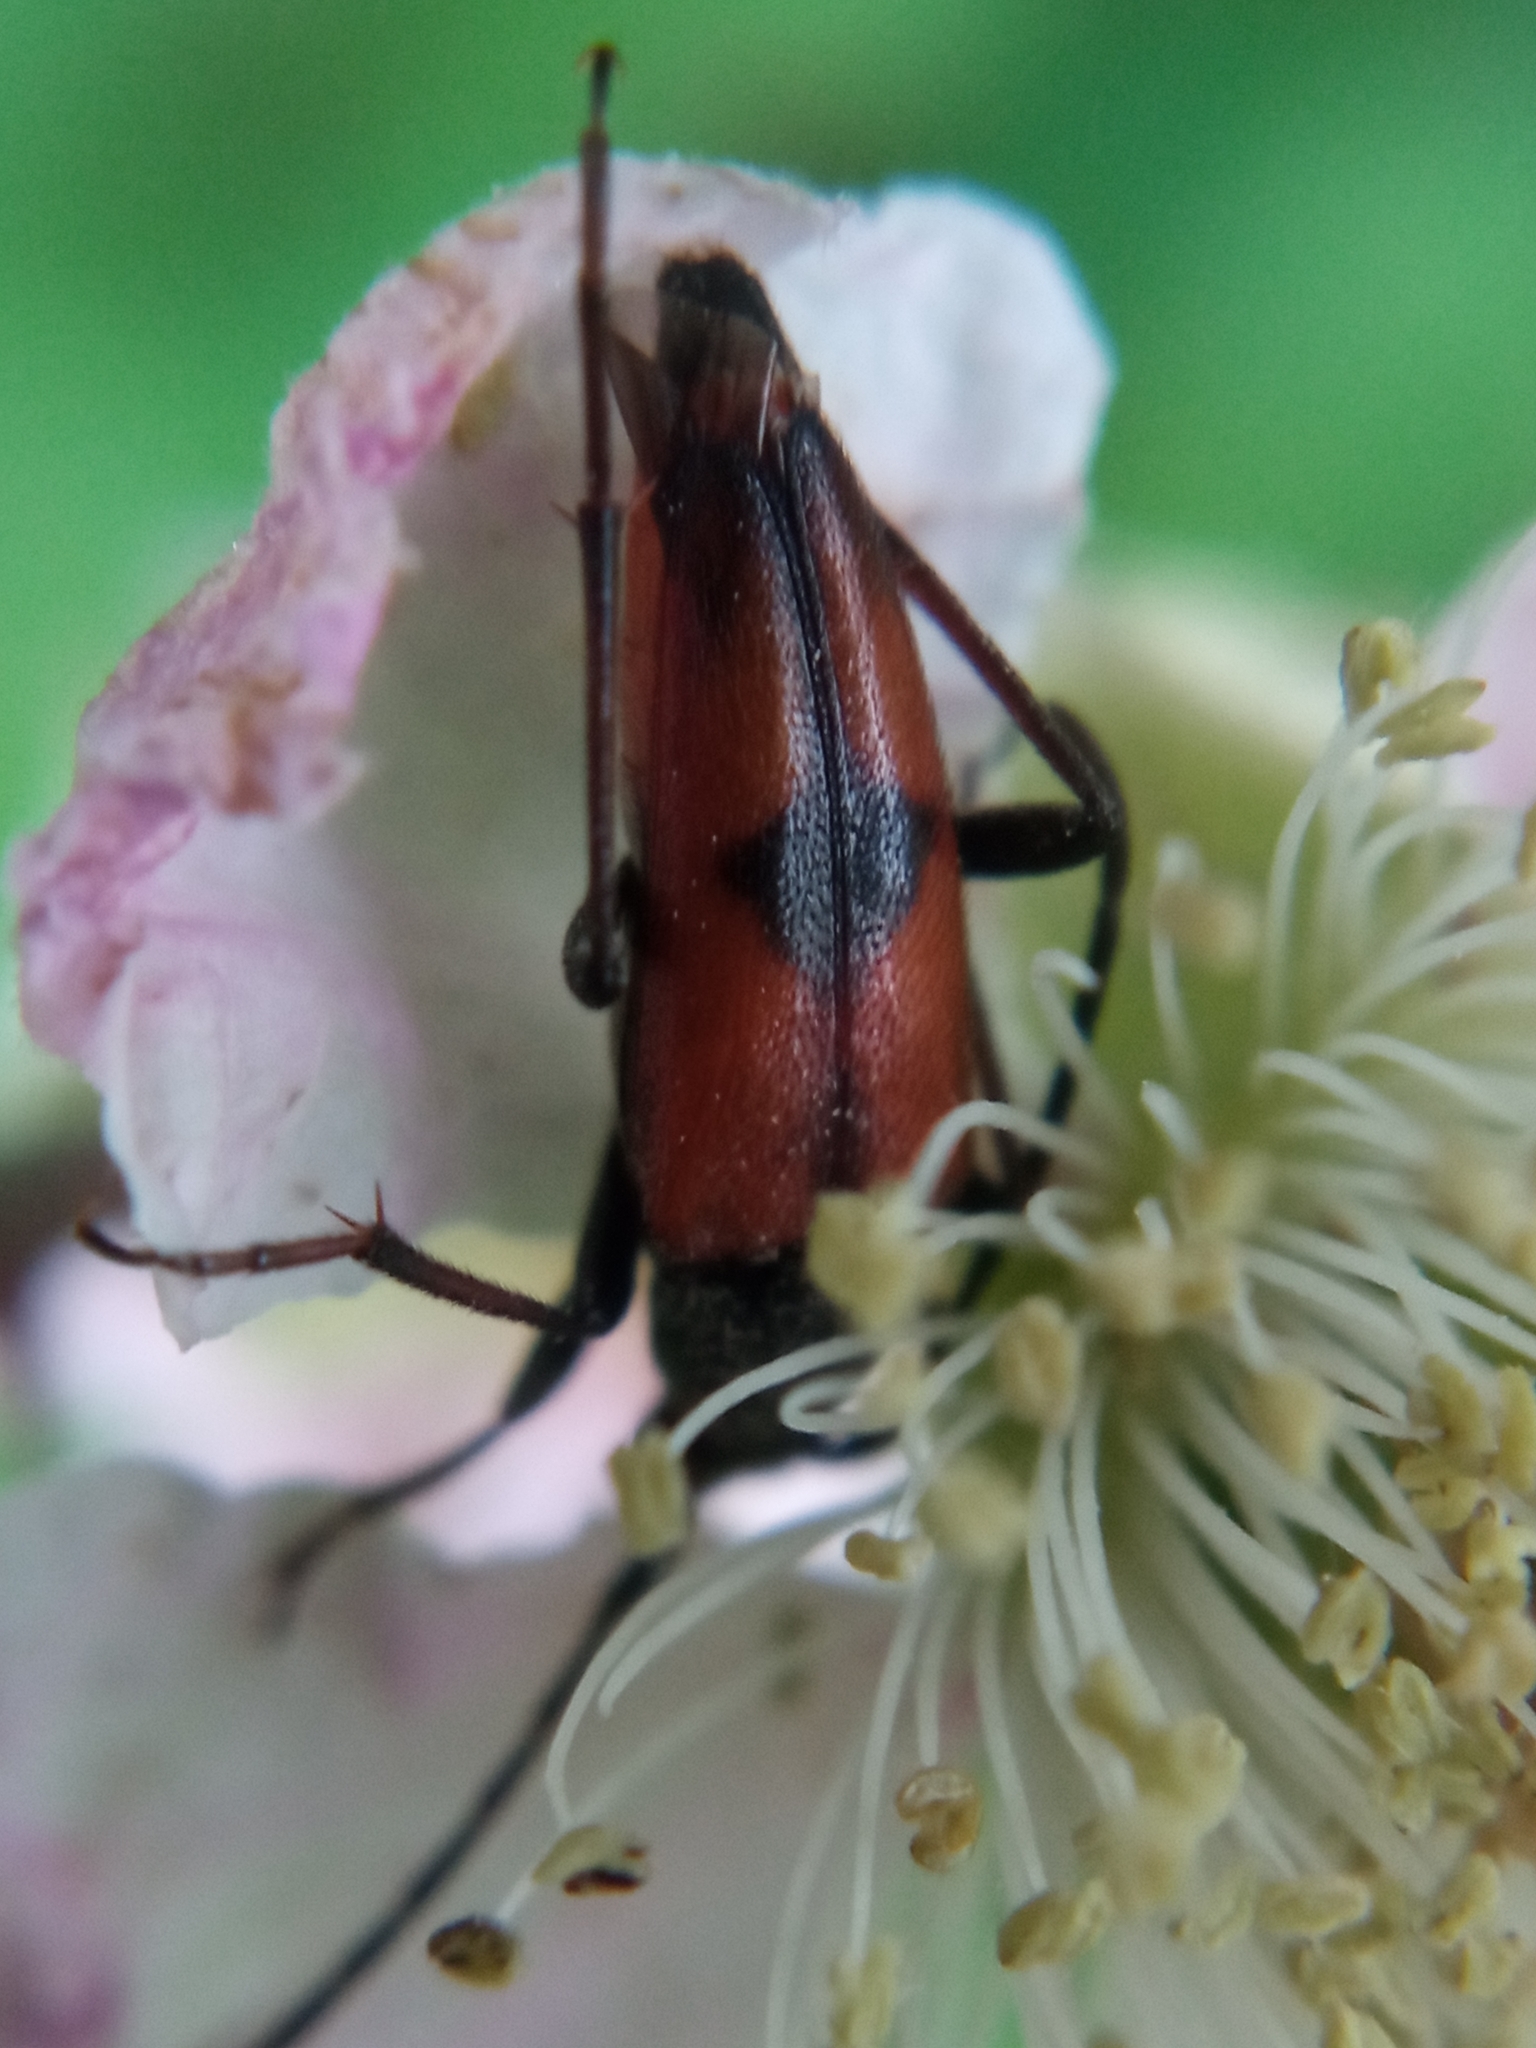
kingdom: Animalia
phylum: Arthropoda
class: Insecta
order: Coleoptera
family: Cerambycidae
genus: Stenurella
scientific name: Stenurella bifasciata
